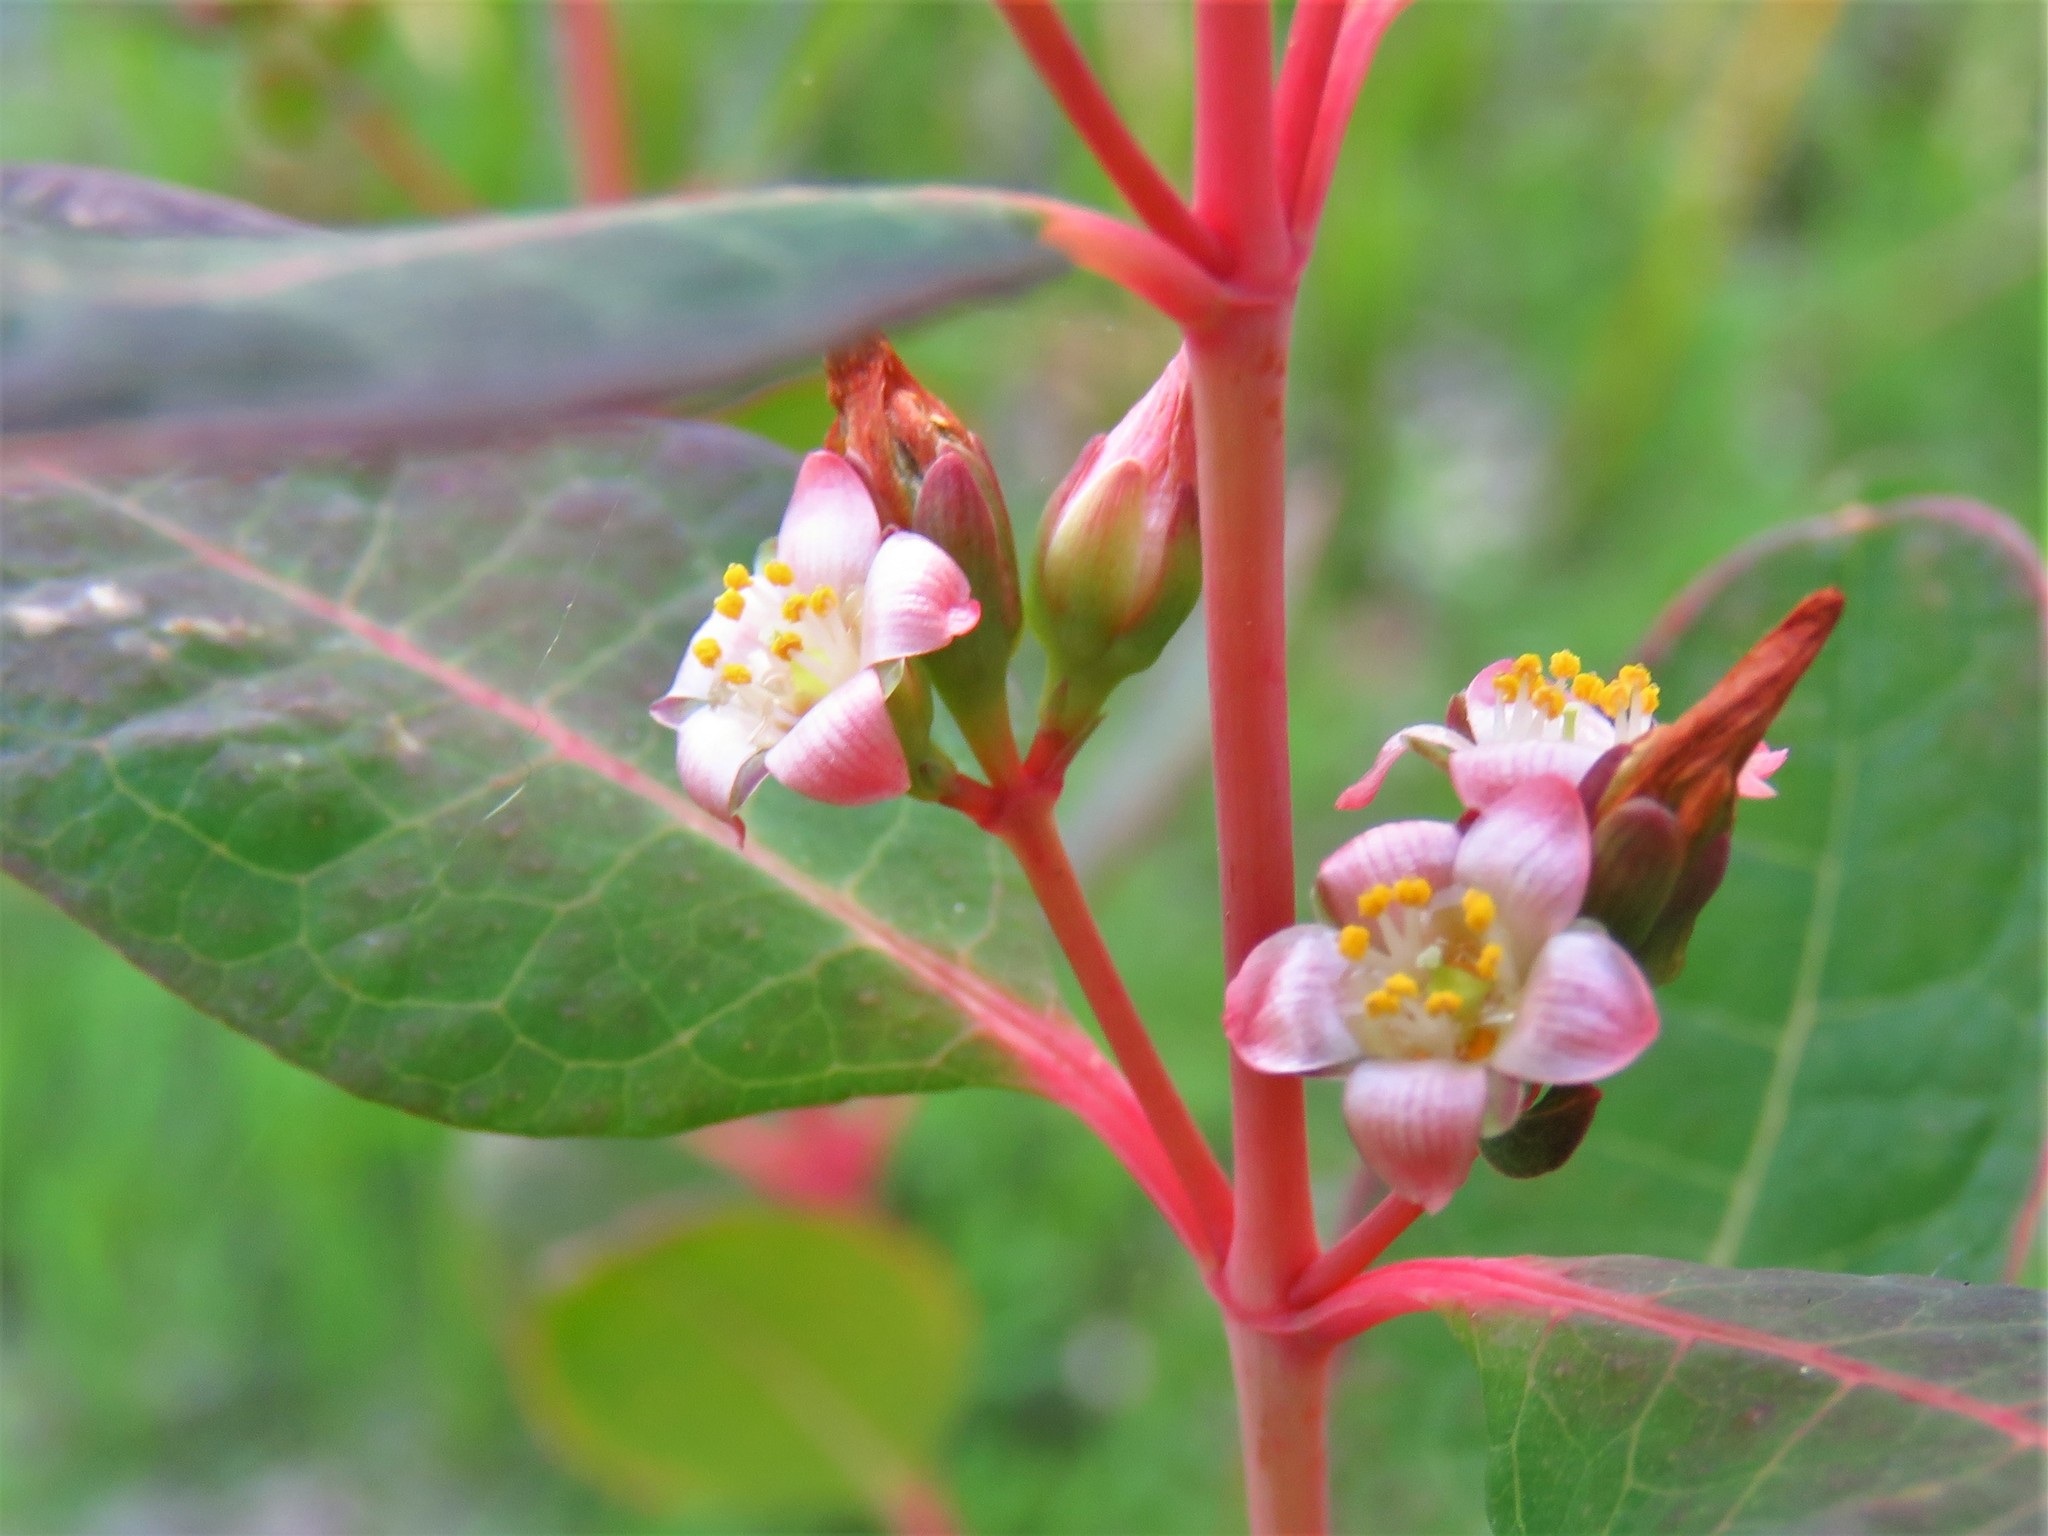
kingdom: Plantae
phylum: Tracheophyta
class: Magnoliopsida
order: Malpighiales
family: Hypericaceae
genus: Triadenum
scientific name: Triadenum walteri
